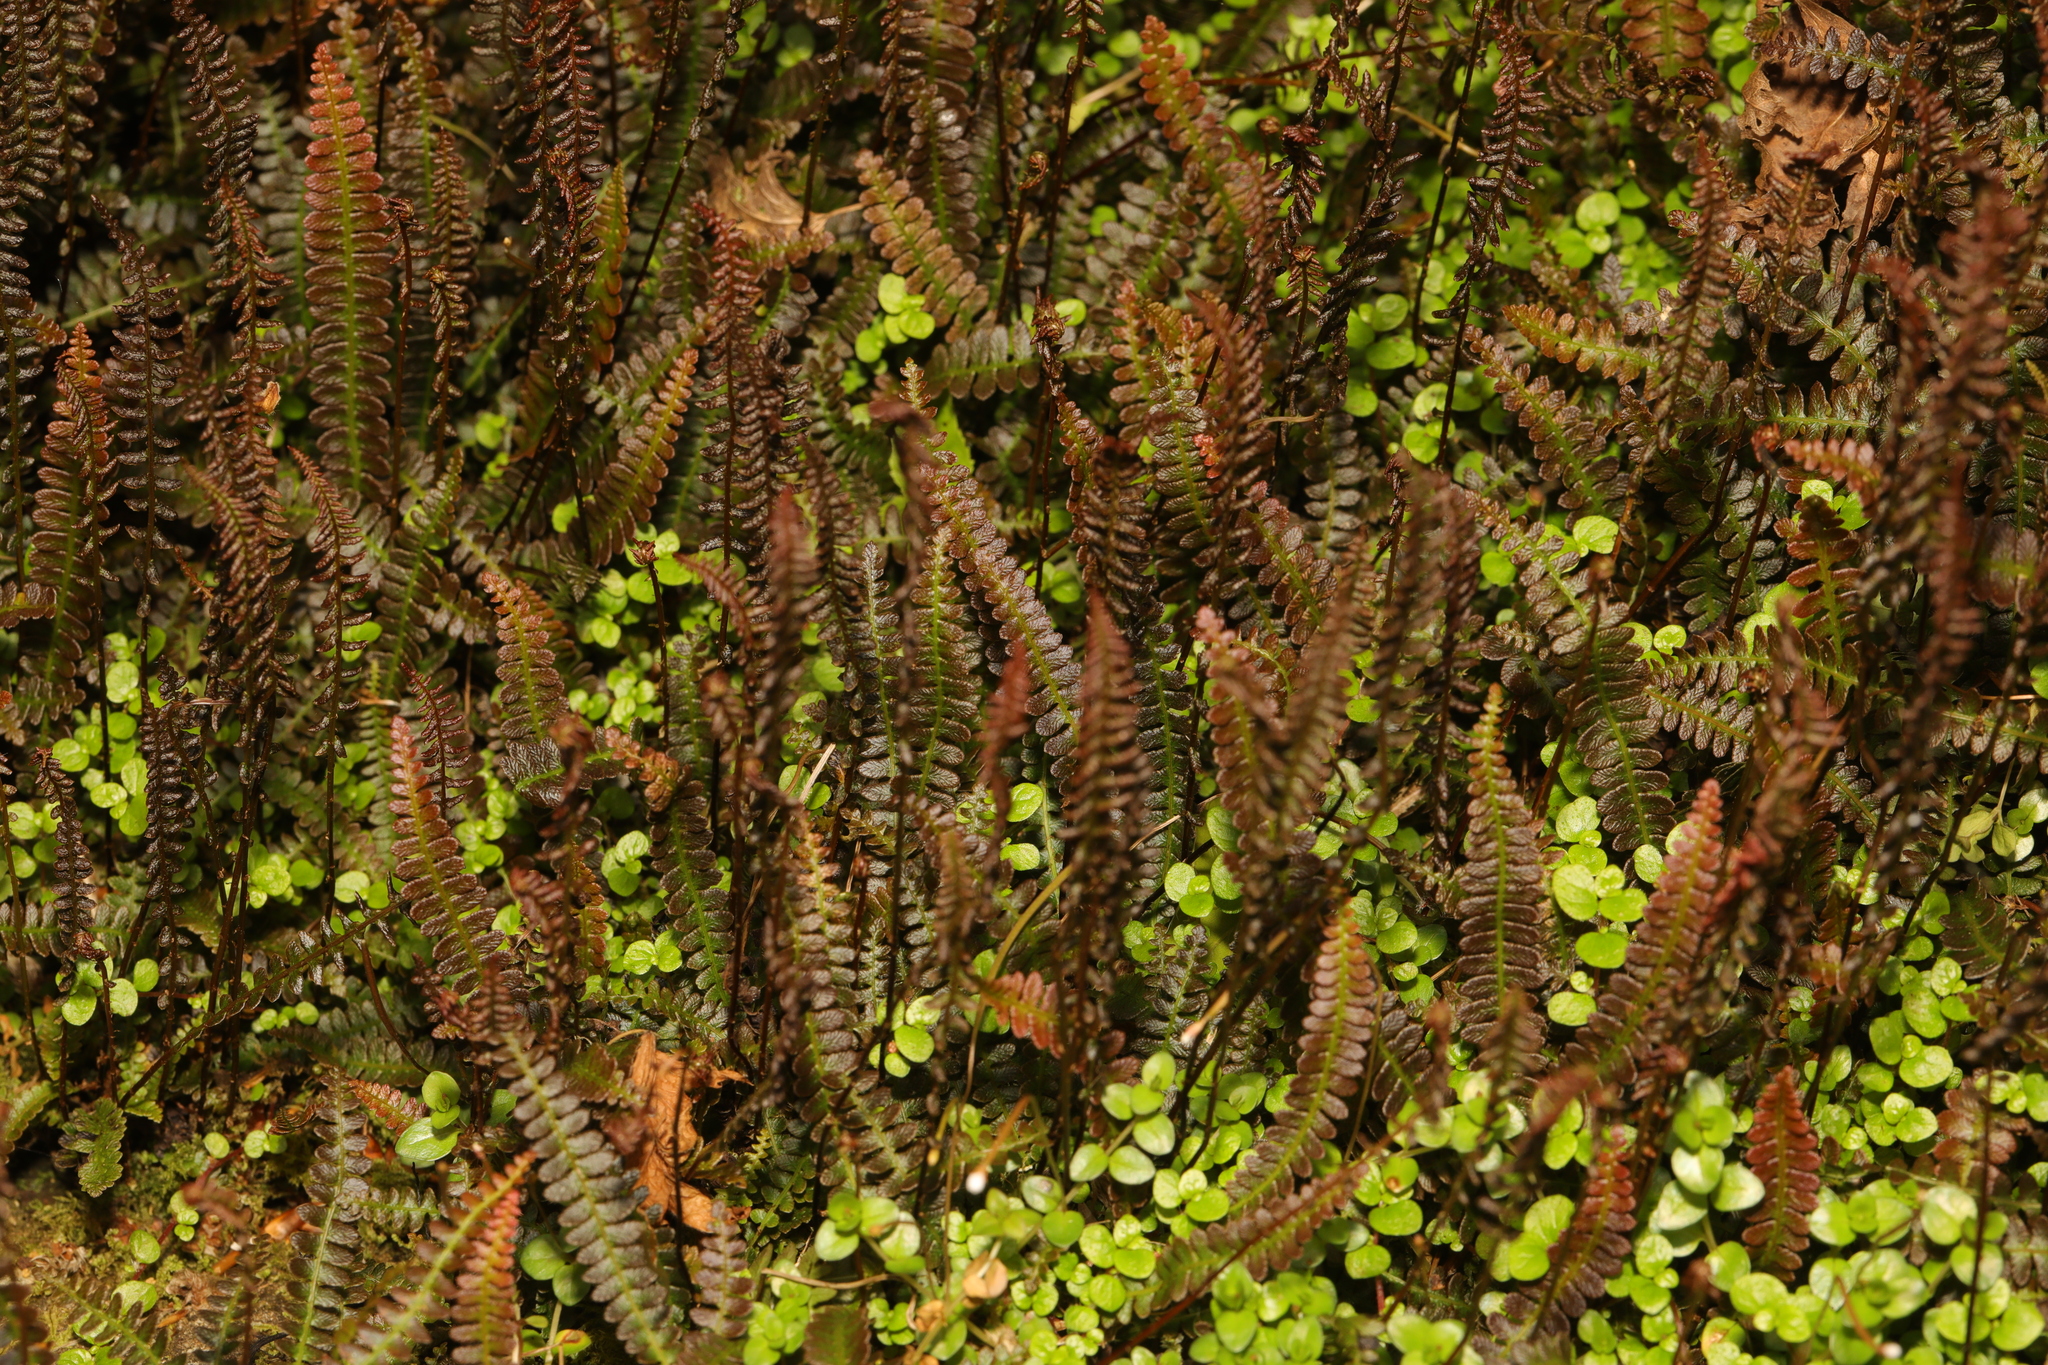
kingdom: Plantae
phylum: Tracheophyta
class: Polypodiopsida
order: Polypodiales
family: Blechnaceae
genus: Austroblechnum
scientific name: Austroblechnum penna-marina
